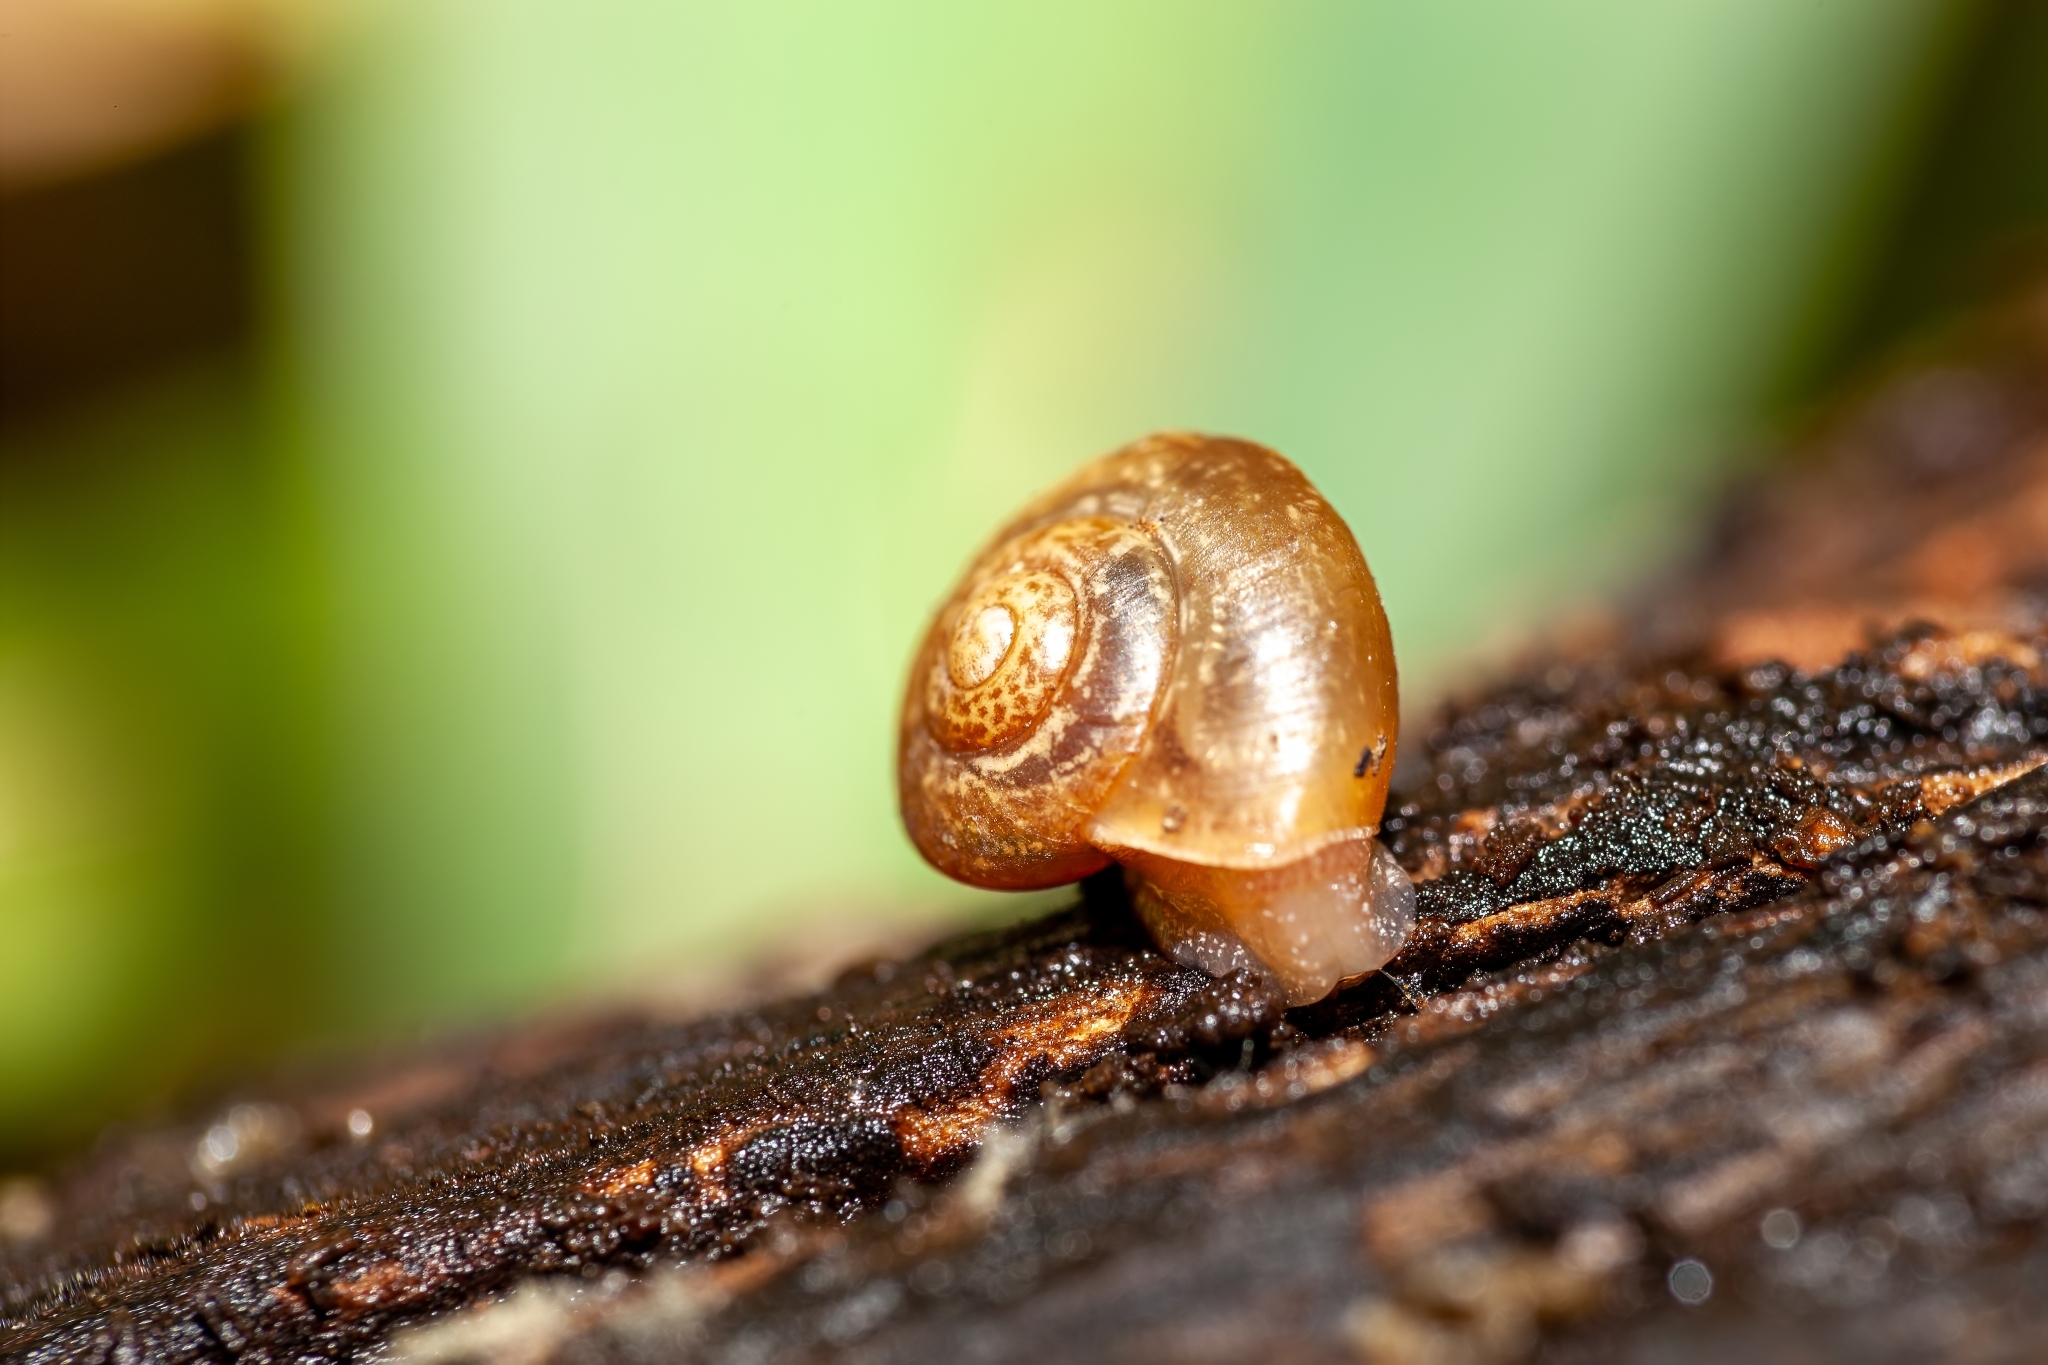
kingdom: Animalia
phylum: Mollusca
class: Gastropoda
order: Stylommatophora
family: Camaenidae
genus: Bradybaena
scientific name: Bradybaena similaris
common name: Asian trampsnail
